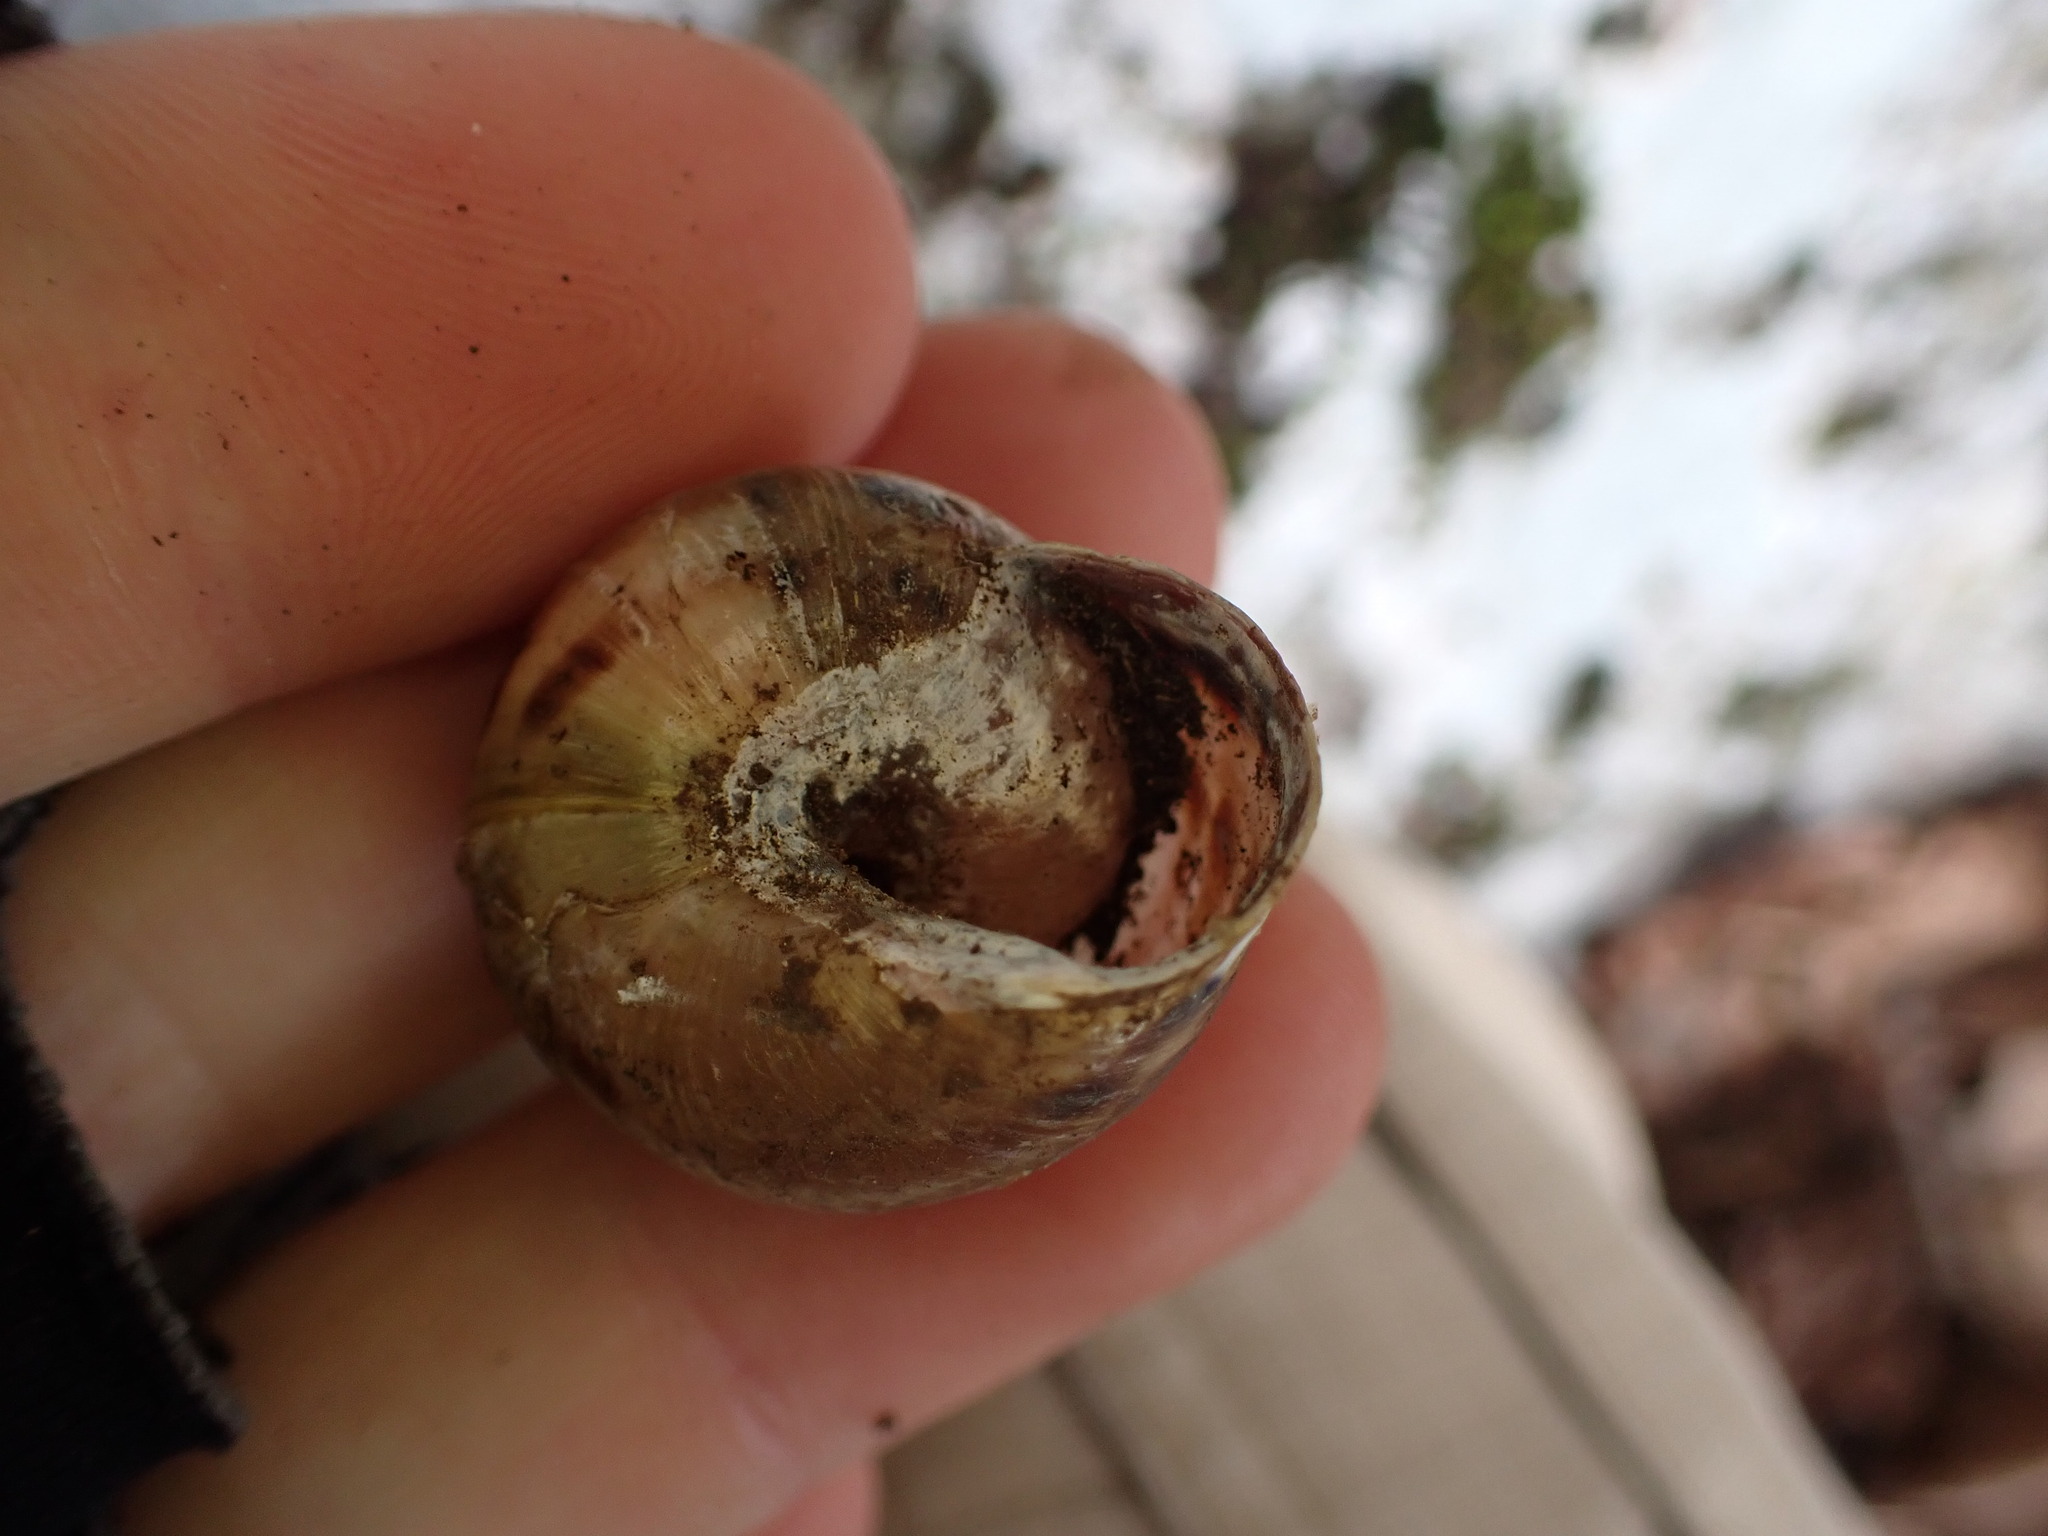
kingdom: Animalia
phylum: Mollusca
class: Gastropoda
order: Stylommatophora
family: Helicidae
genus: Cepaea
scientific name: Cepaea nemoralis
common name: Grovesnail
